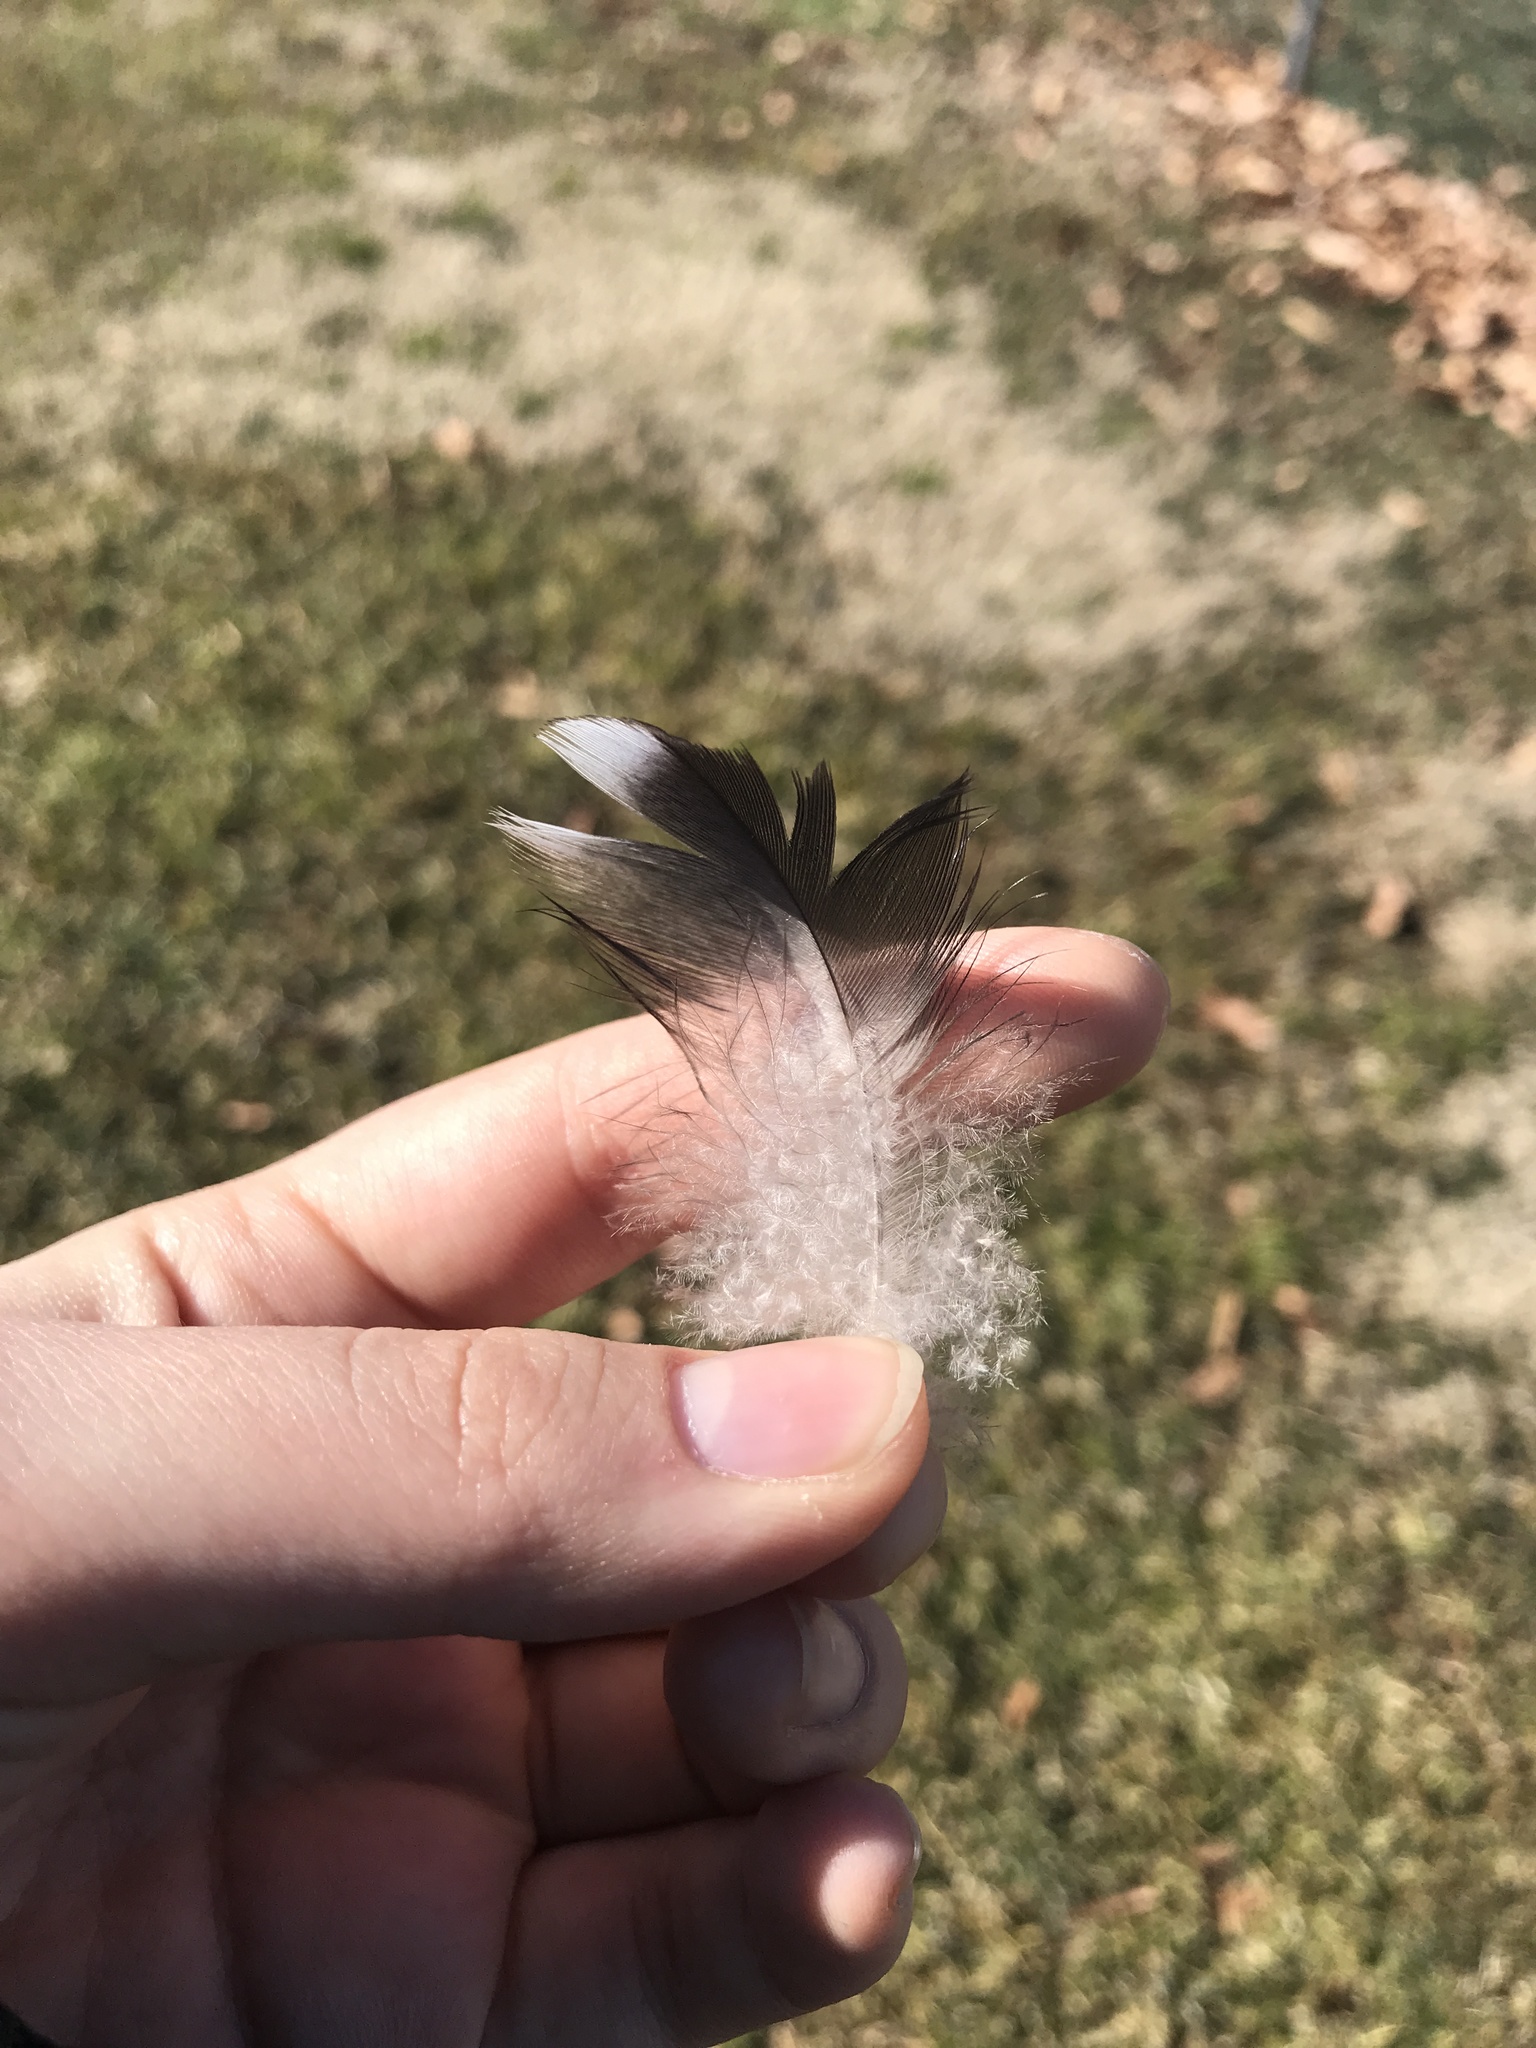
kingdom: Animalia
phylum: Chordata
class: Aves
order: Anseriformes
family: Anatidae
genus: Branta
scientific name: Branta canadensis
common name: Canada goose
